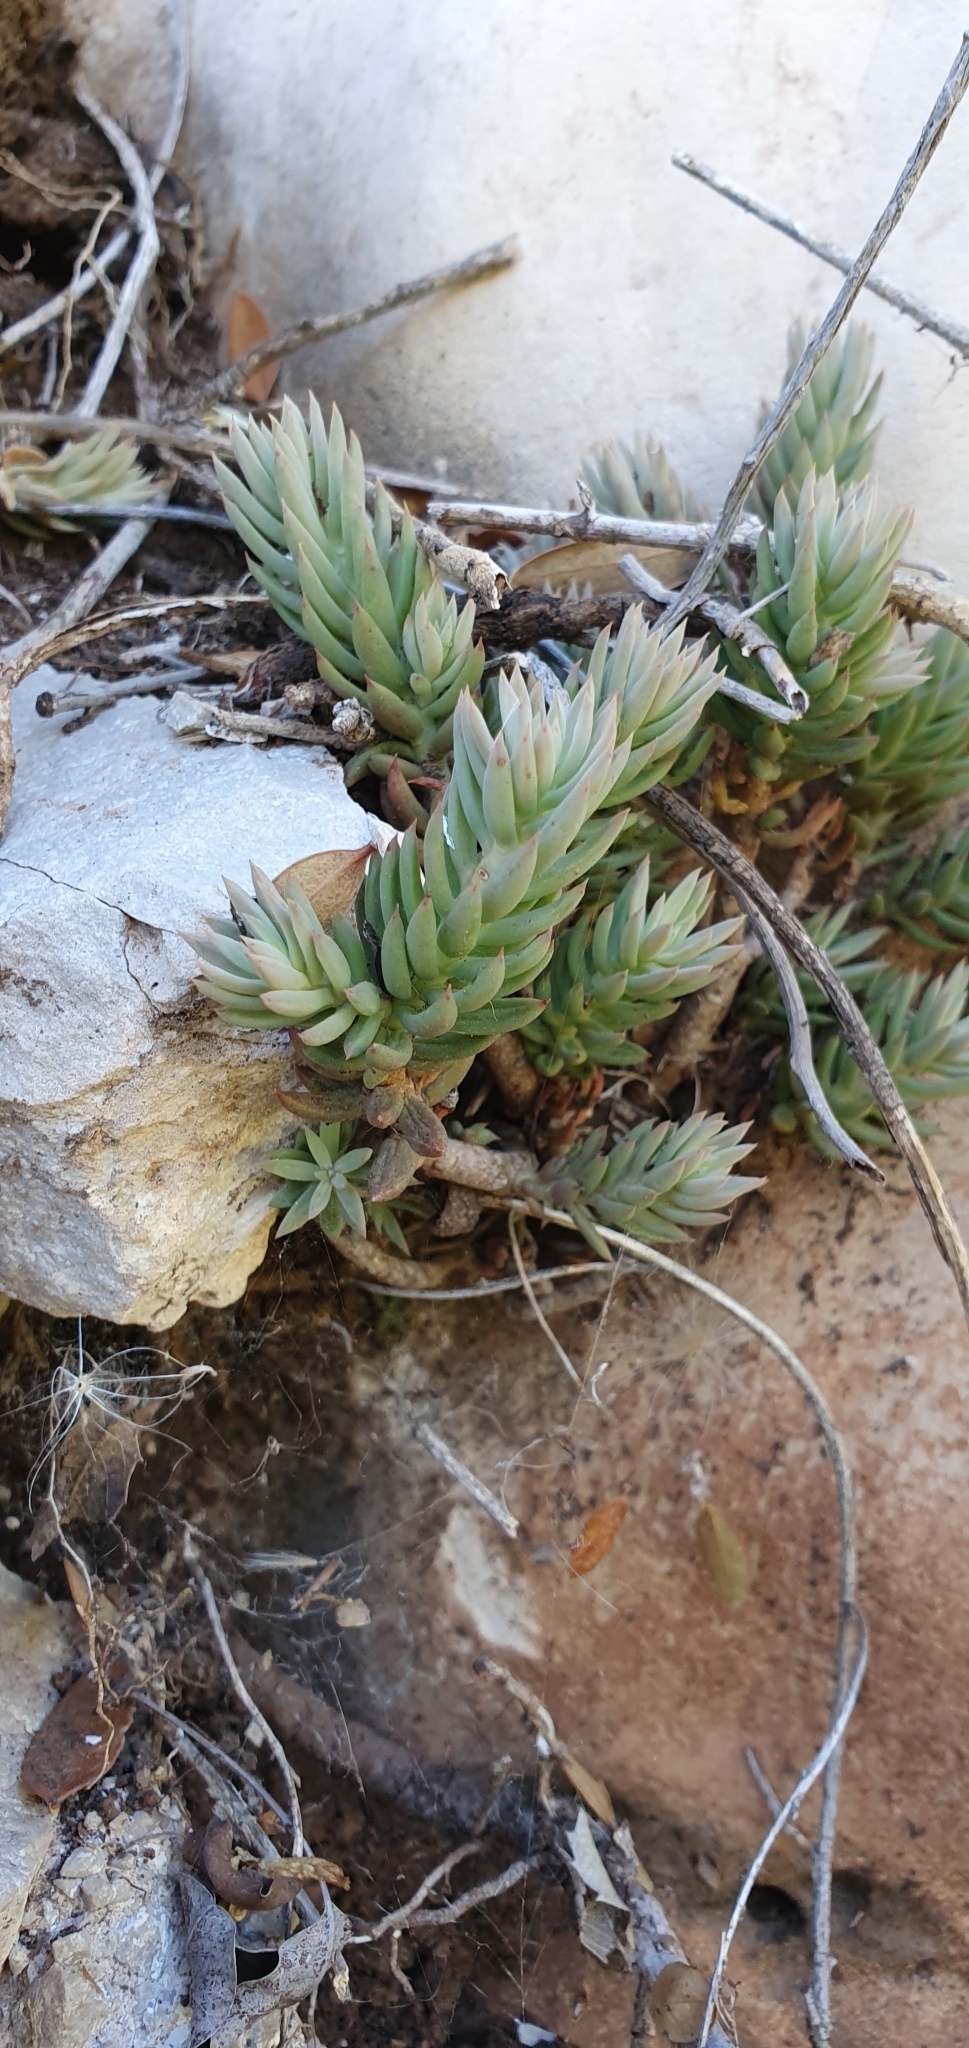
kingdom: Plantae
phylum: Tracheophyta
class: Magnoliopsida
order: Saxifragales
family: Crassulaceae
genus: Petrosedum
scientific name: Petrosedum sediforme
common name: Pale stonecrop
